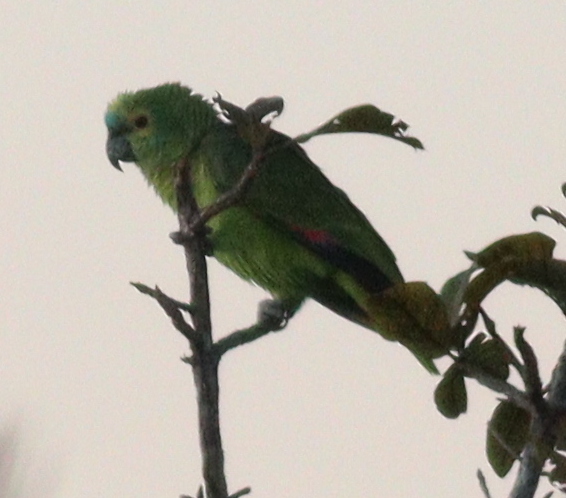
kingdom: Animalia
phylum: Chordata
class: Aves
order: Psittaciformes
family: Psittacidae
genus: Amazona
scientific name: Amazona aestiva
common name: Turquoise-fronted amazon
